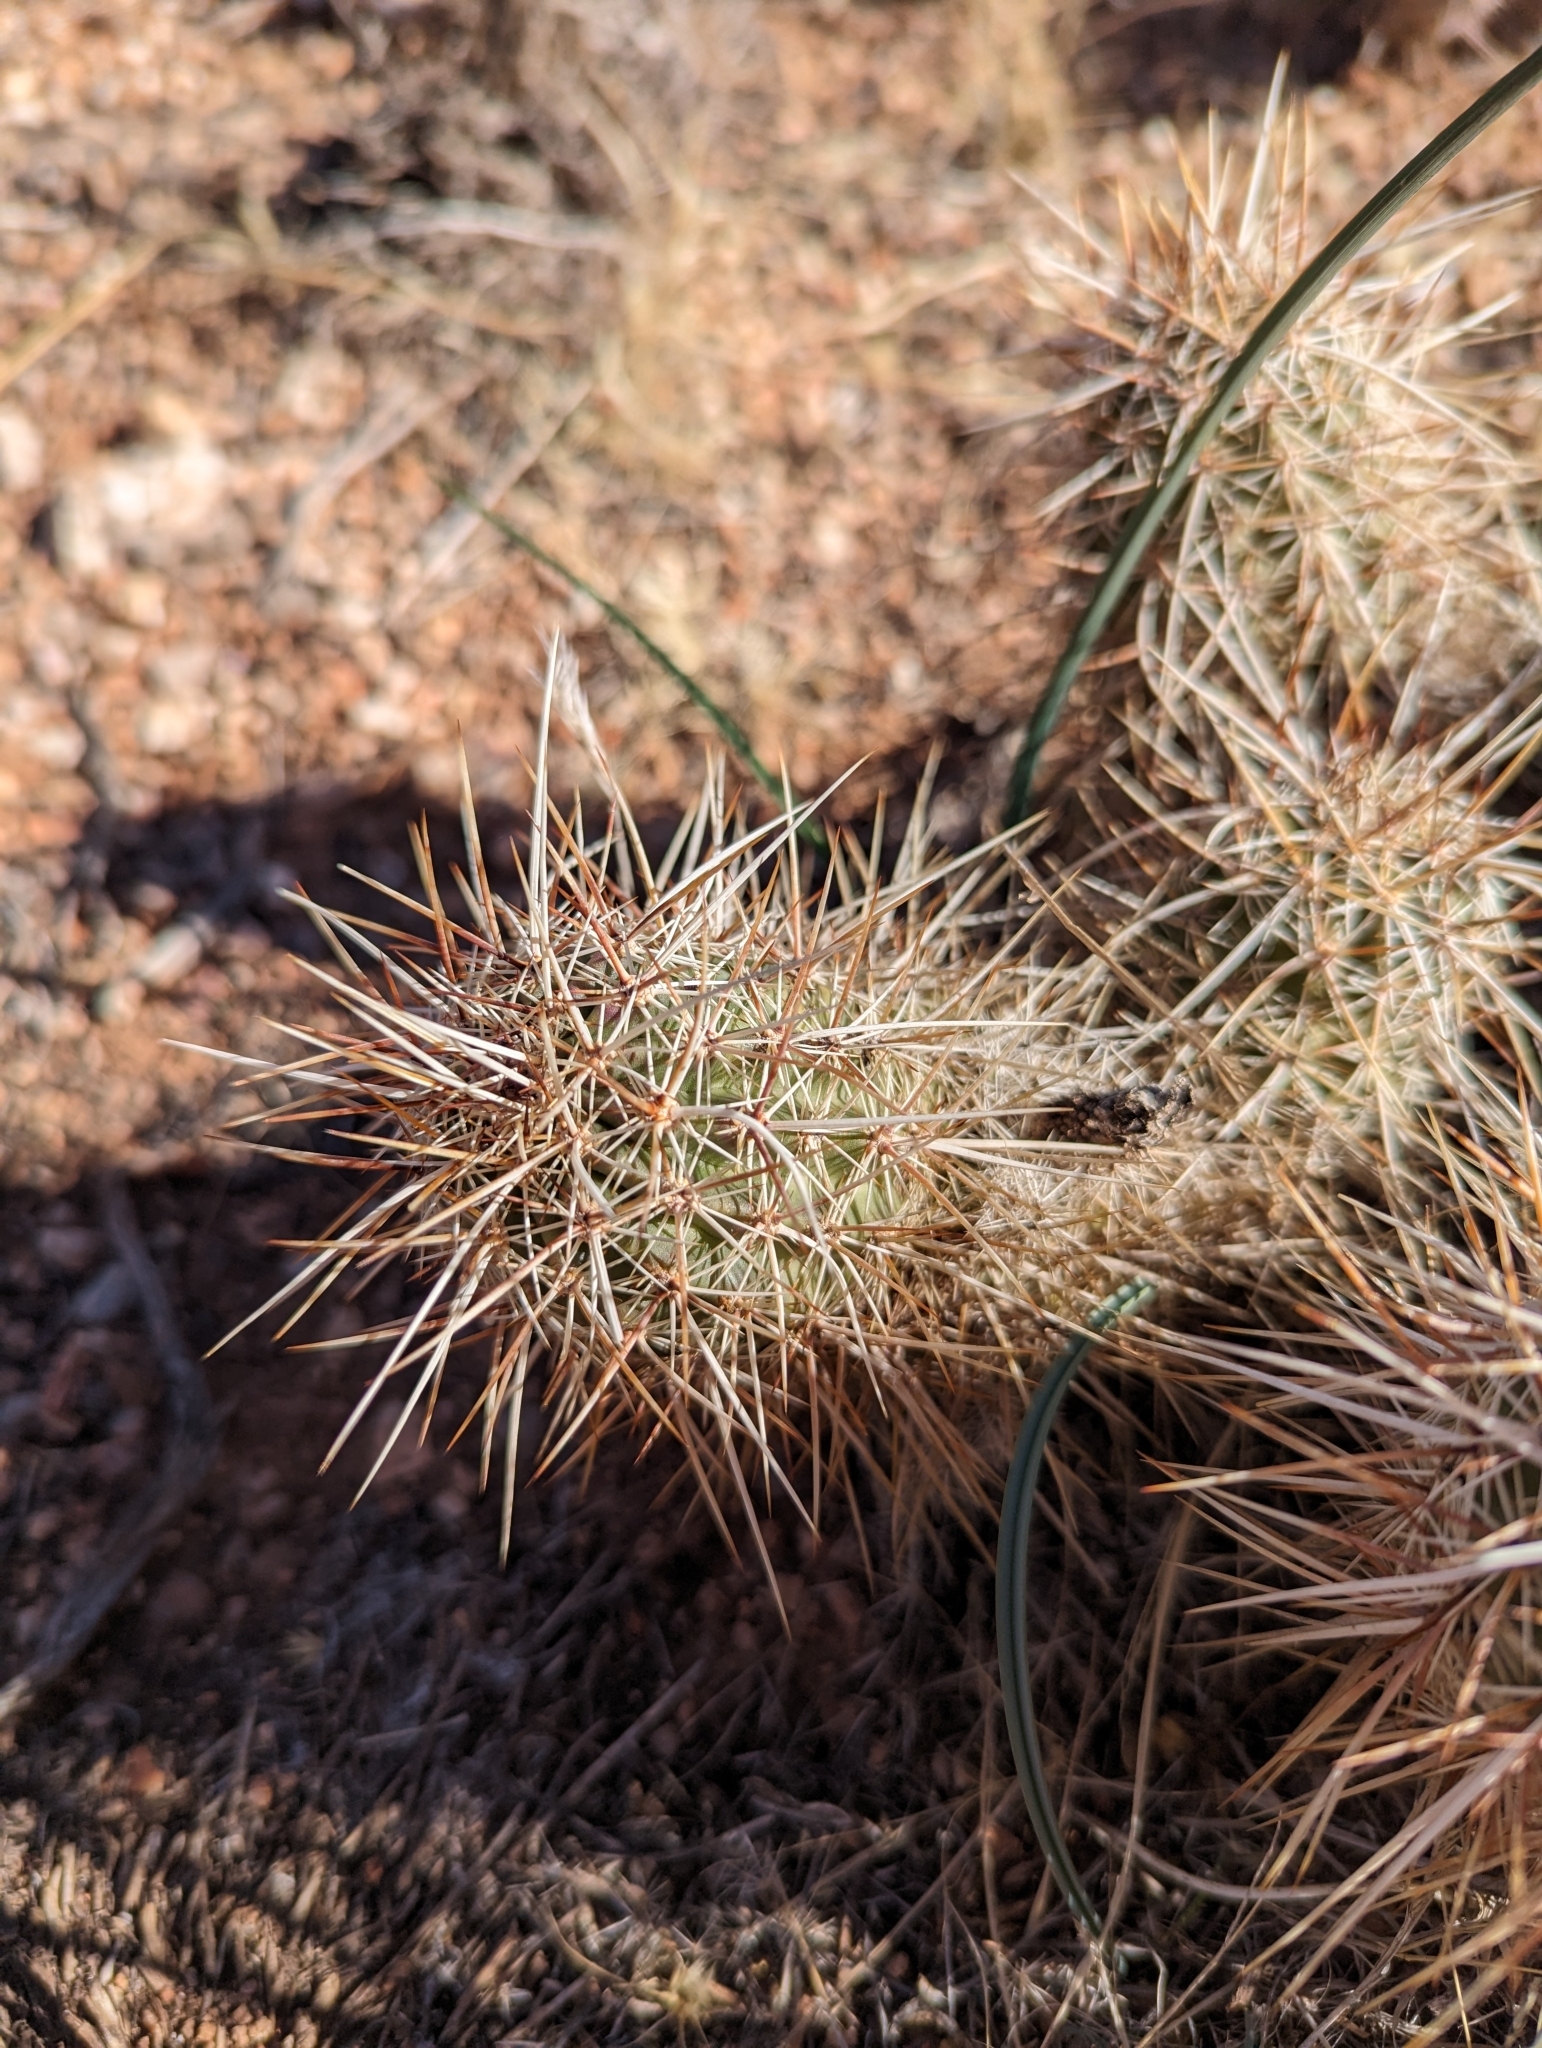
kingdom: Plantae
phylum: Tracheophyta
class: Magnoliopsida
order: Caryophyllales
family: Cactaceae
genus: Echinocereus
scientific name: Echinocereus engelmannii
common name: Engelmann's hedgehog cactus
